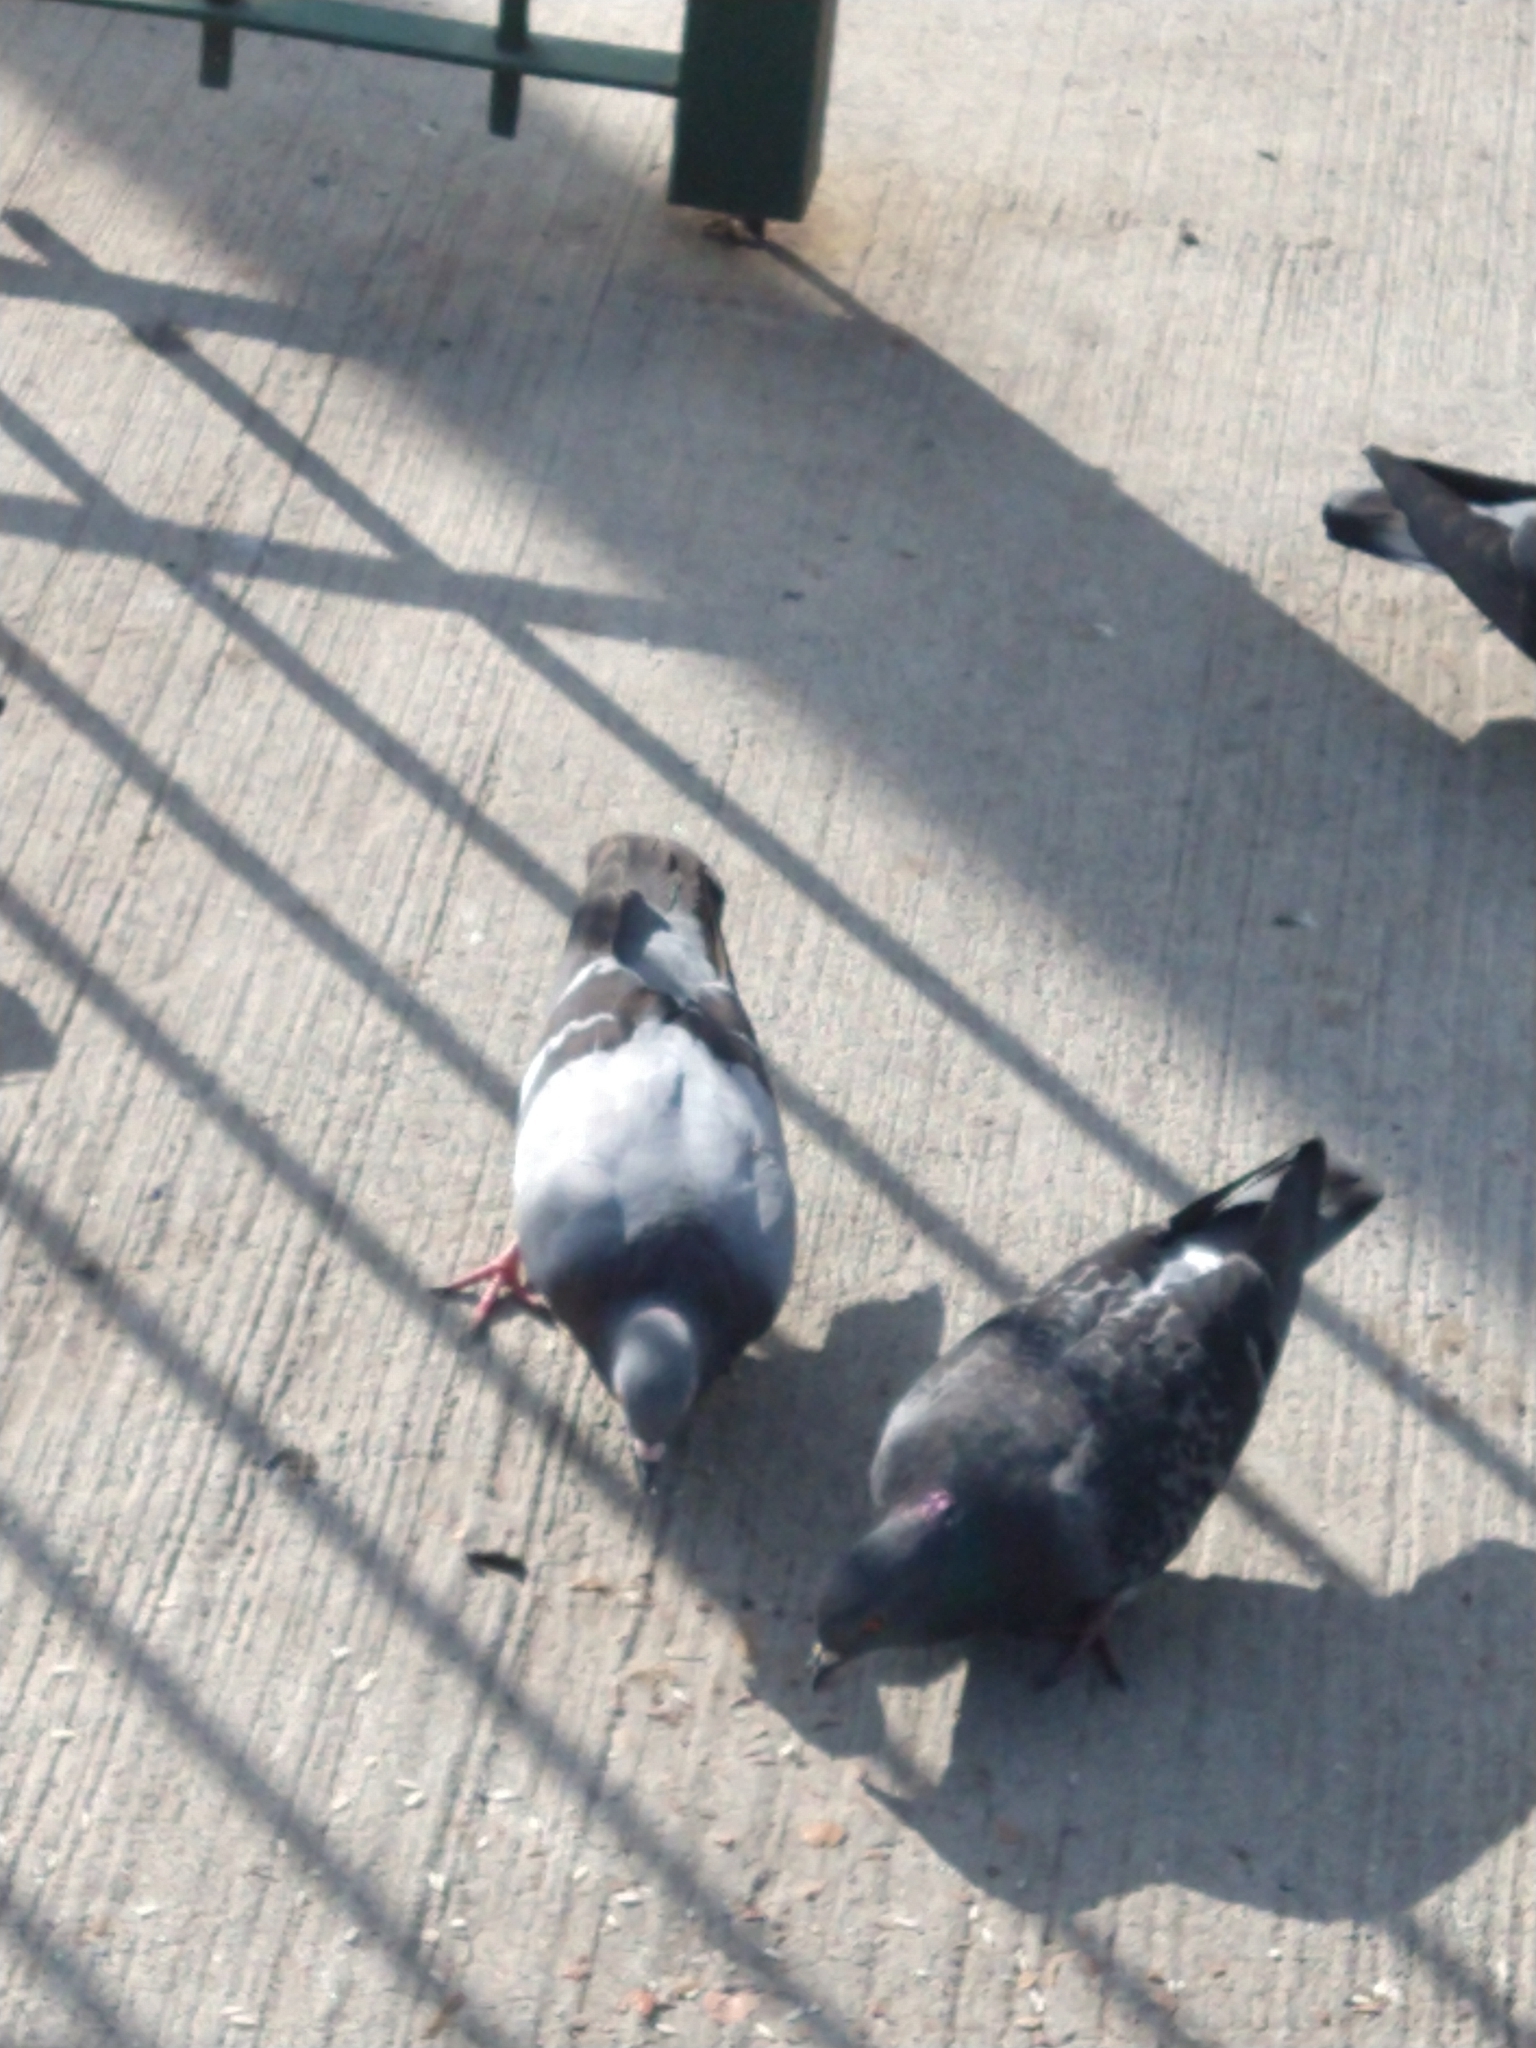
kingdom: Animalia
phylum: Chordata
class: Aves
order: Columbiformes
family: Columbidae
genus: Columba
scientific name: Columba livia
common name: Rock pigeon
